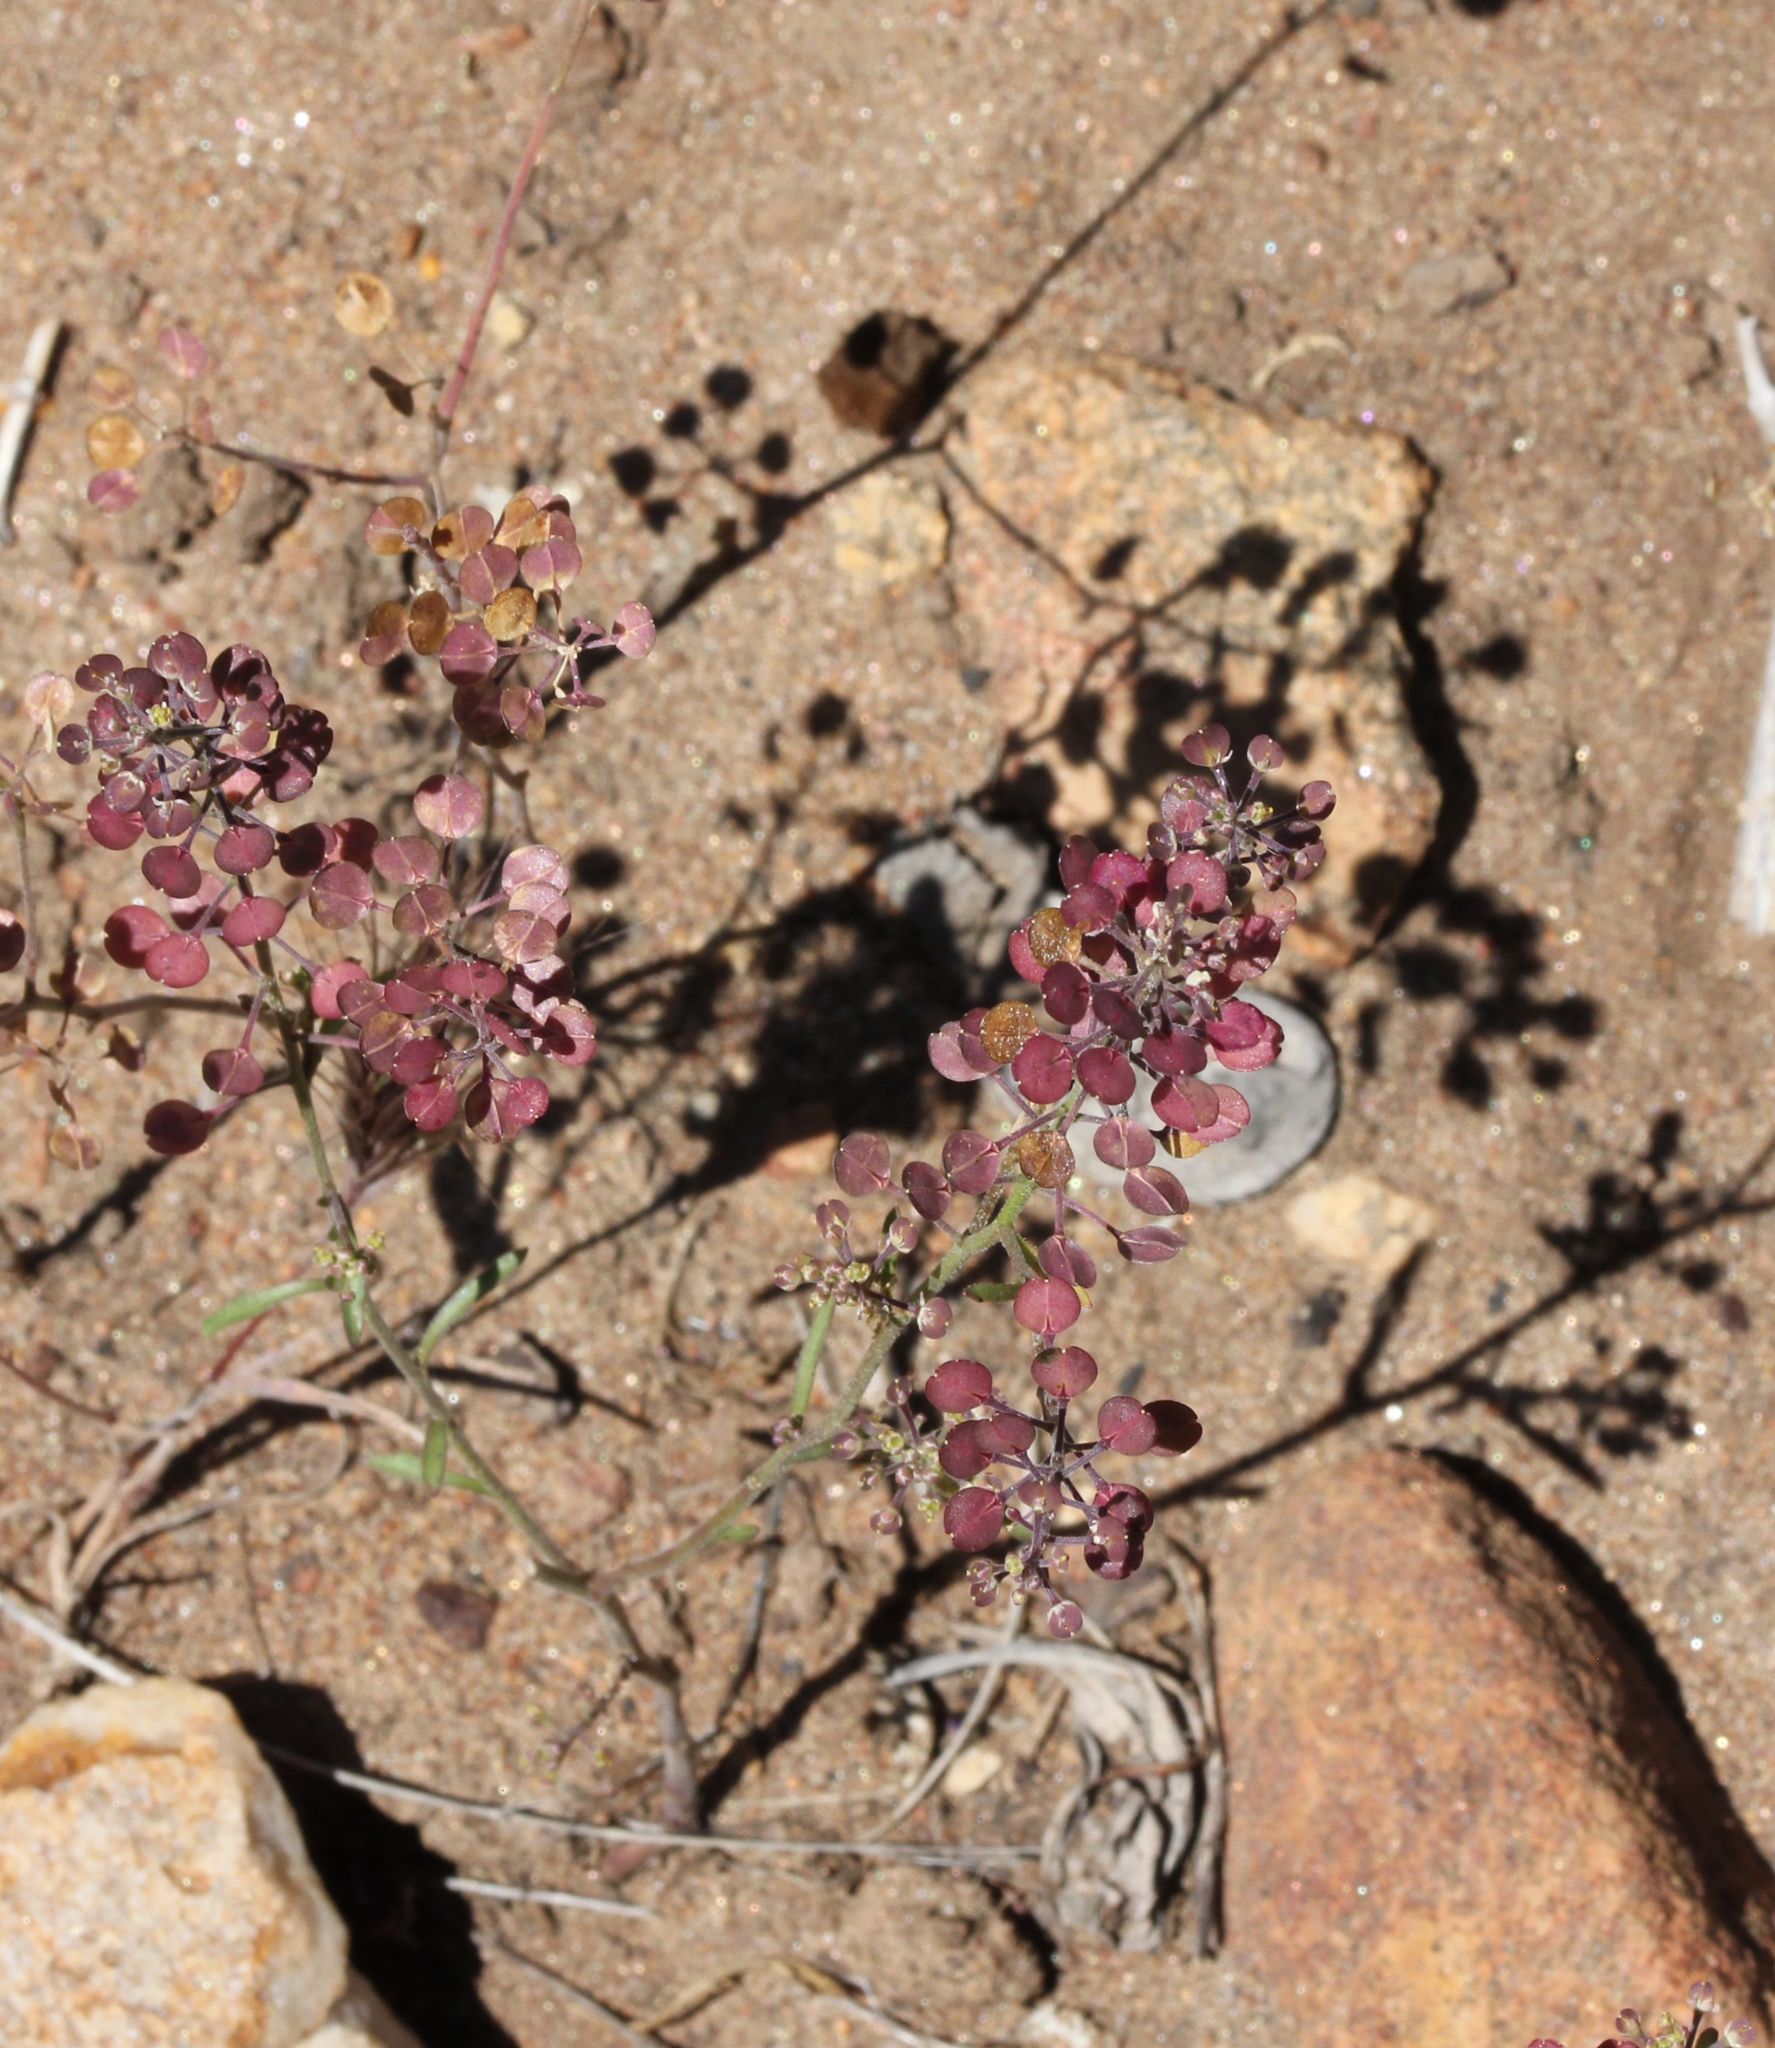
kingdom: Plantae
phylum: Tracheophyta
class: Magnoliopsida
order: Brassicales
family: Brassicaceae
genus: Lepidium
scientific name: Lepidium nitidum
